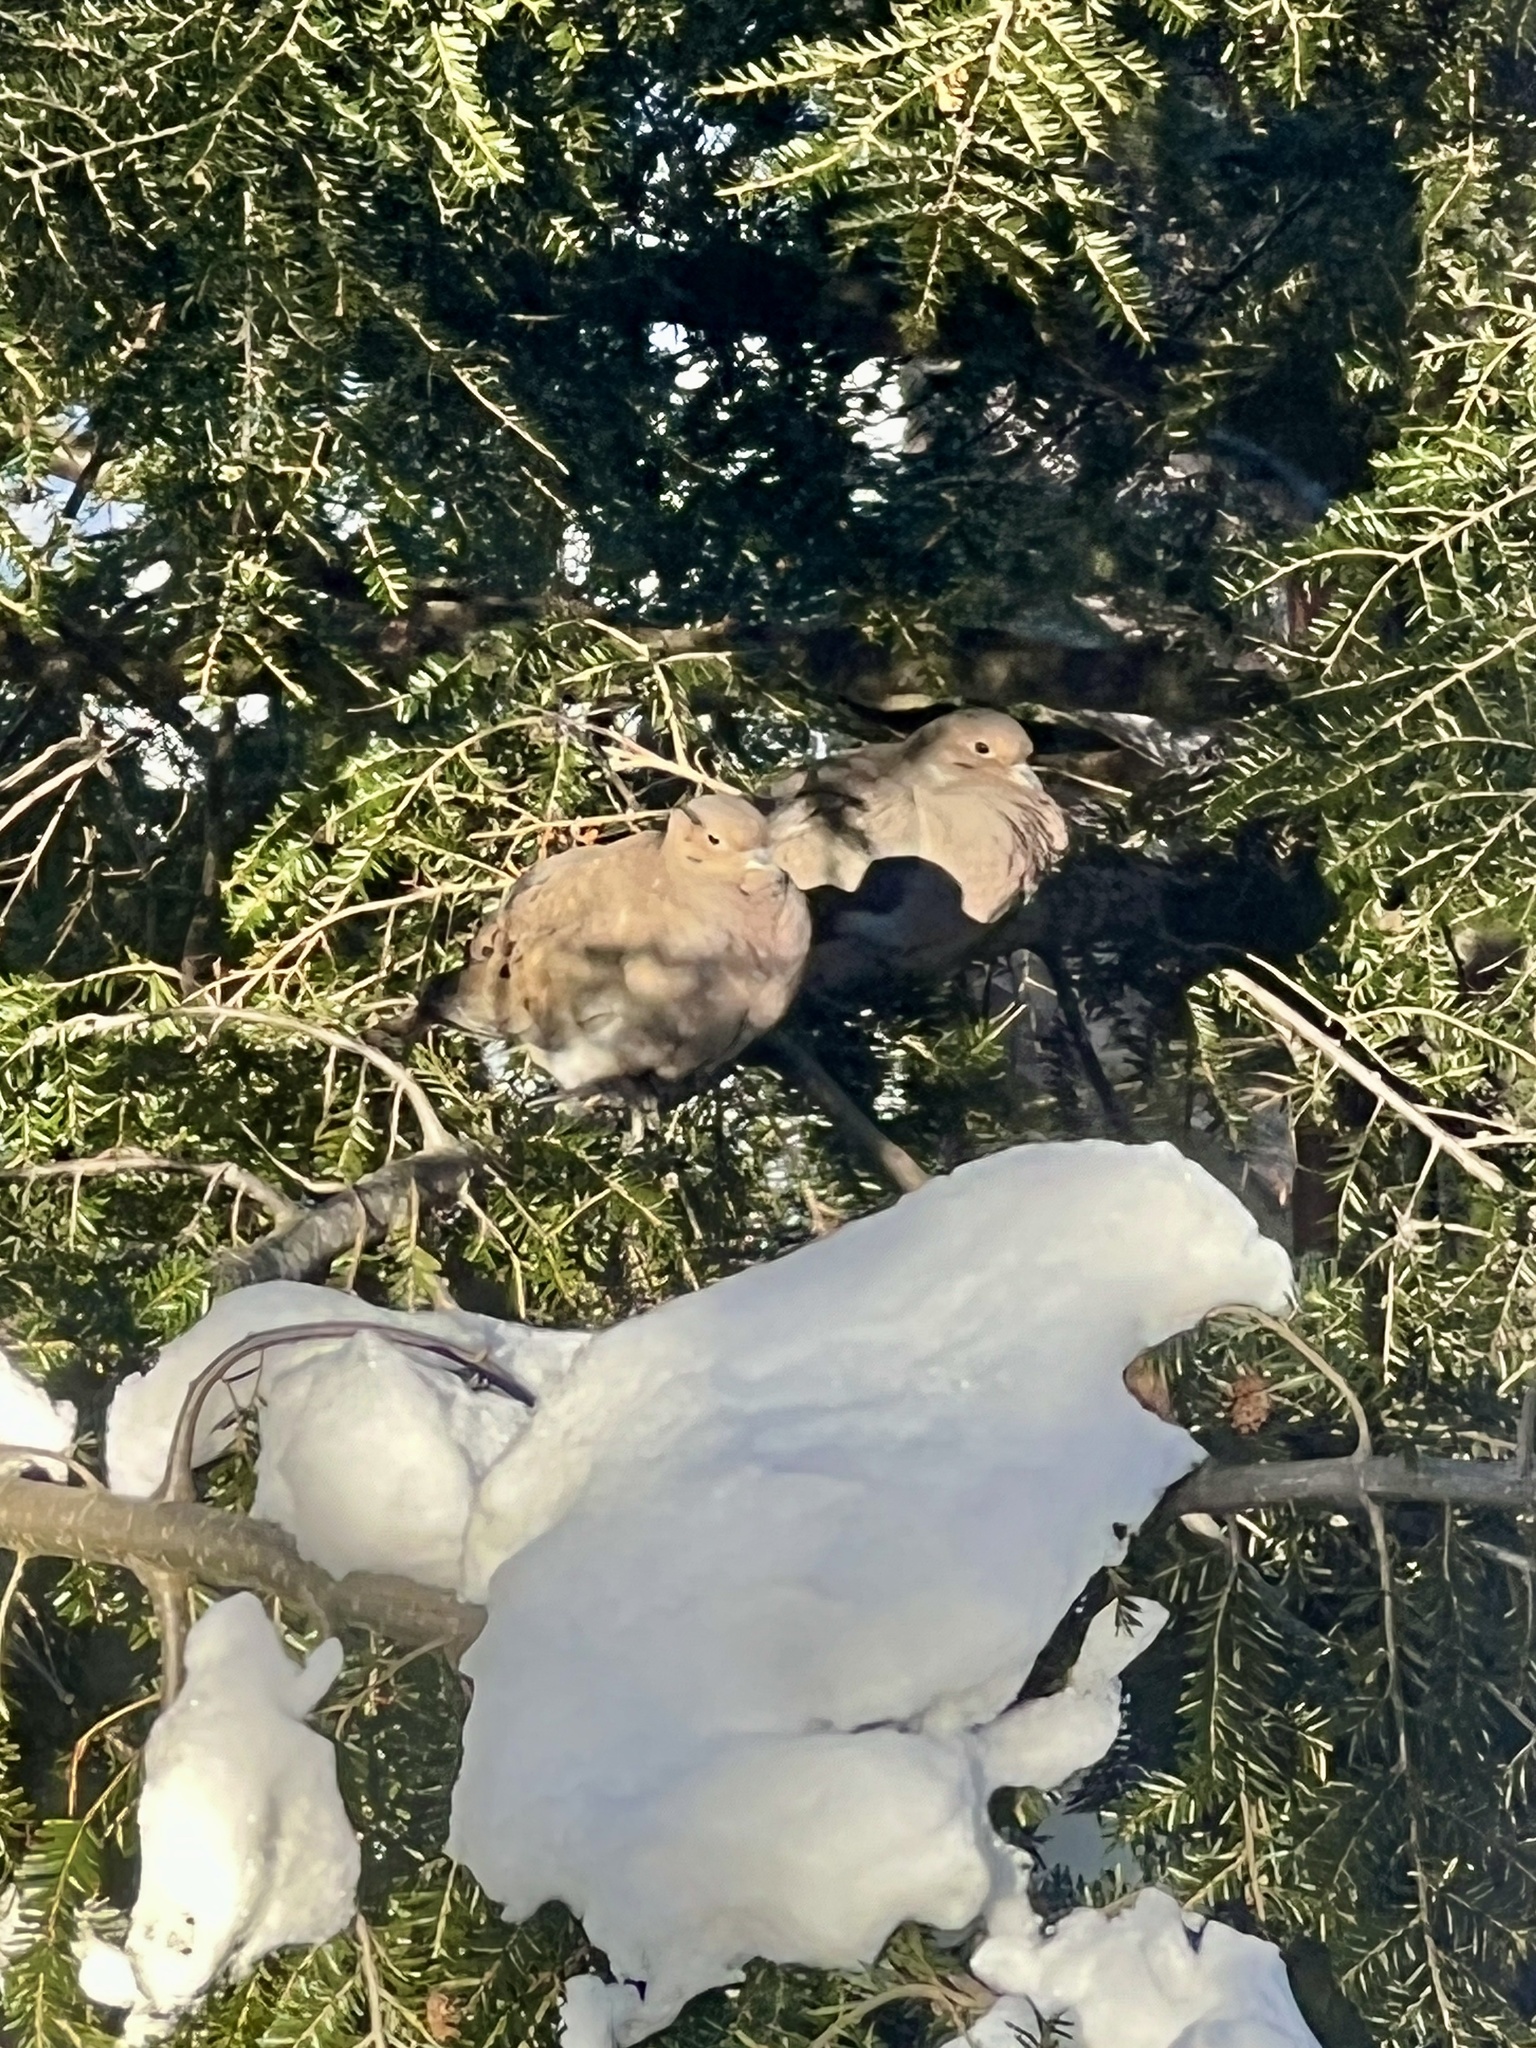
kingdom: Animalia
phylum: Chordata
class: Aves
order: Columbiformes
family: Columbidae
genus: Zenaida
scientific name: Zenaida macroura
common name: Mourning dove
